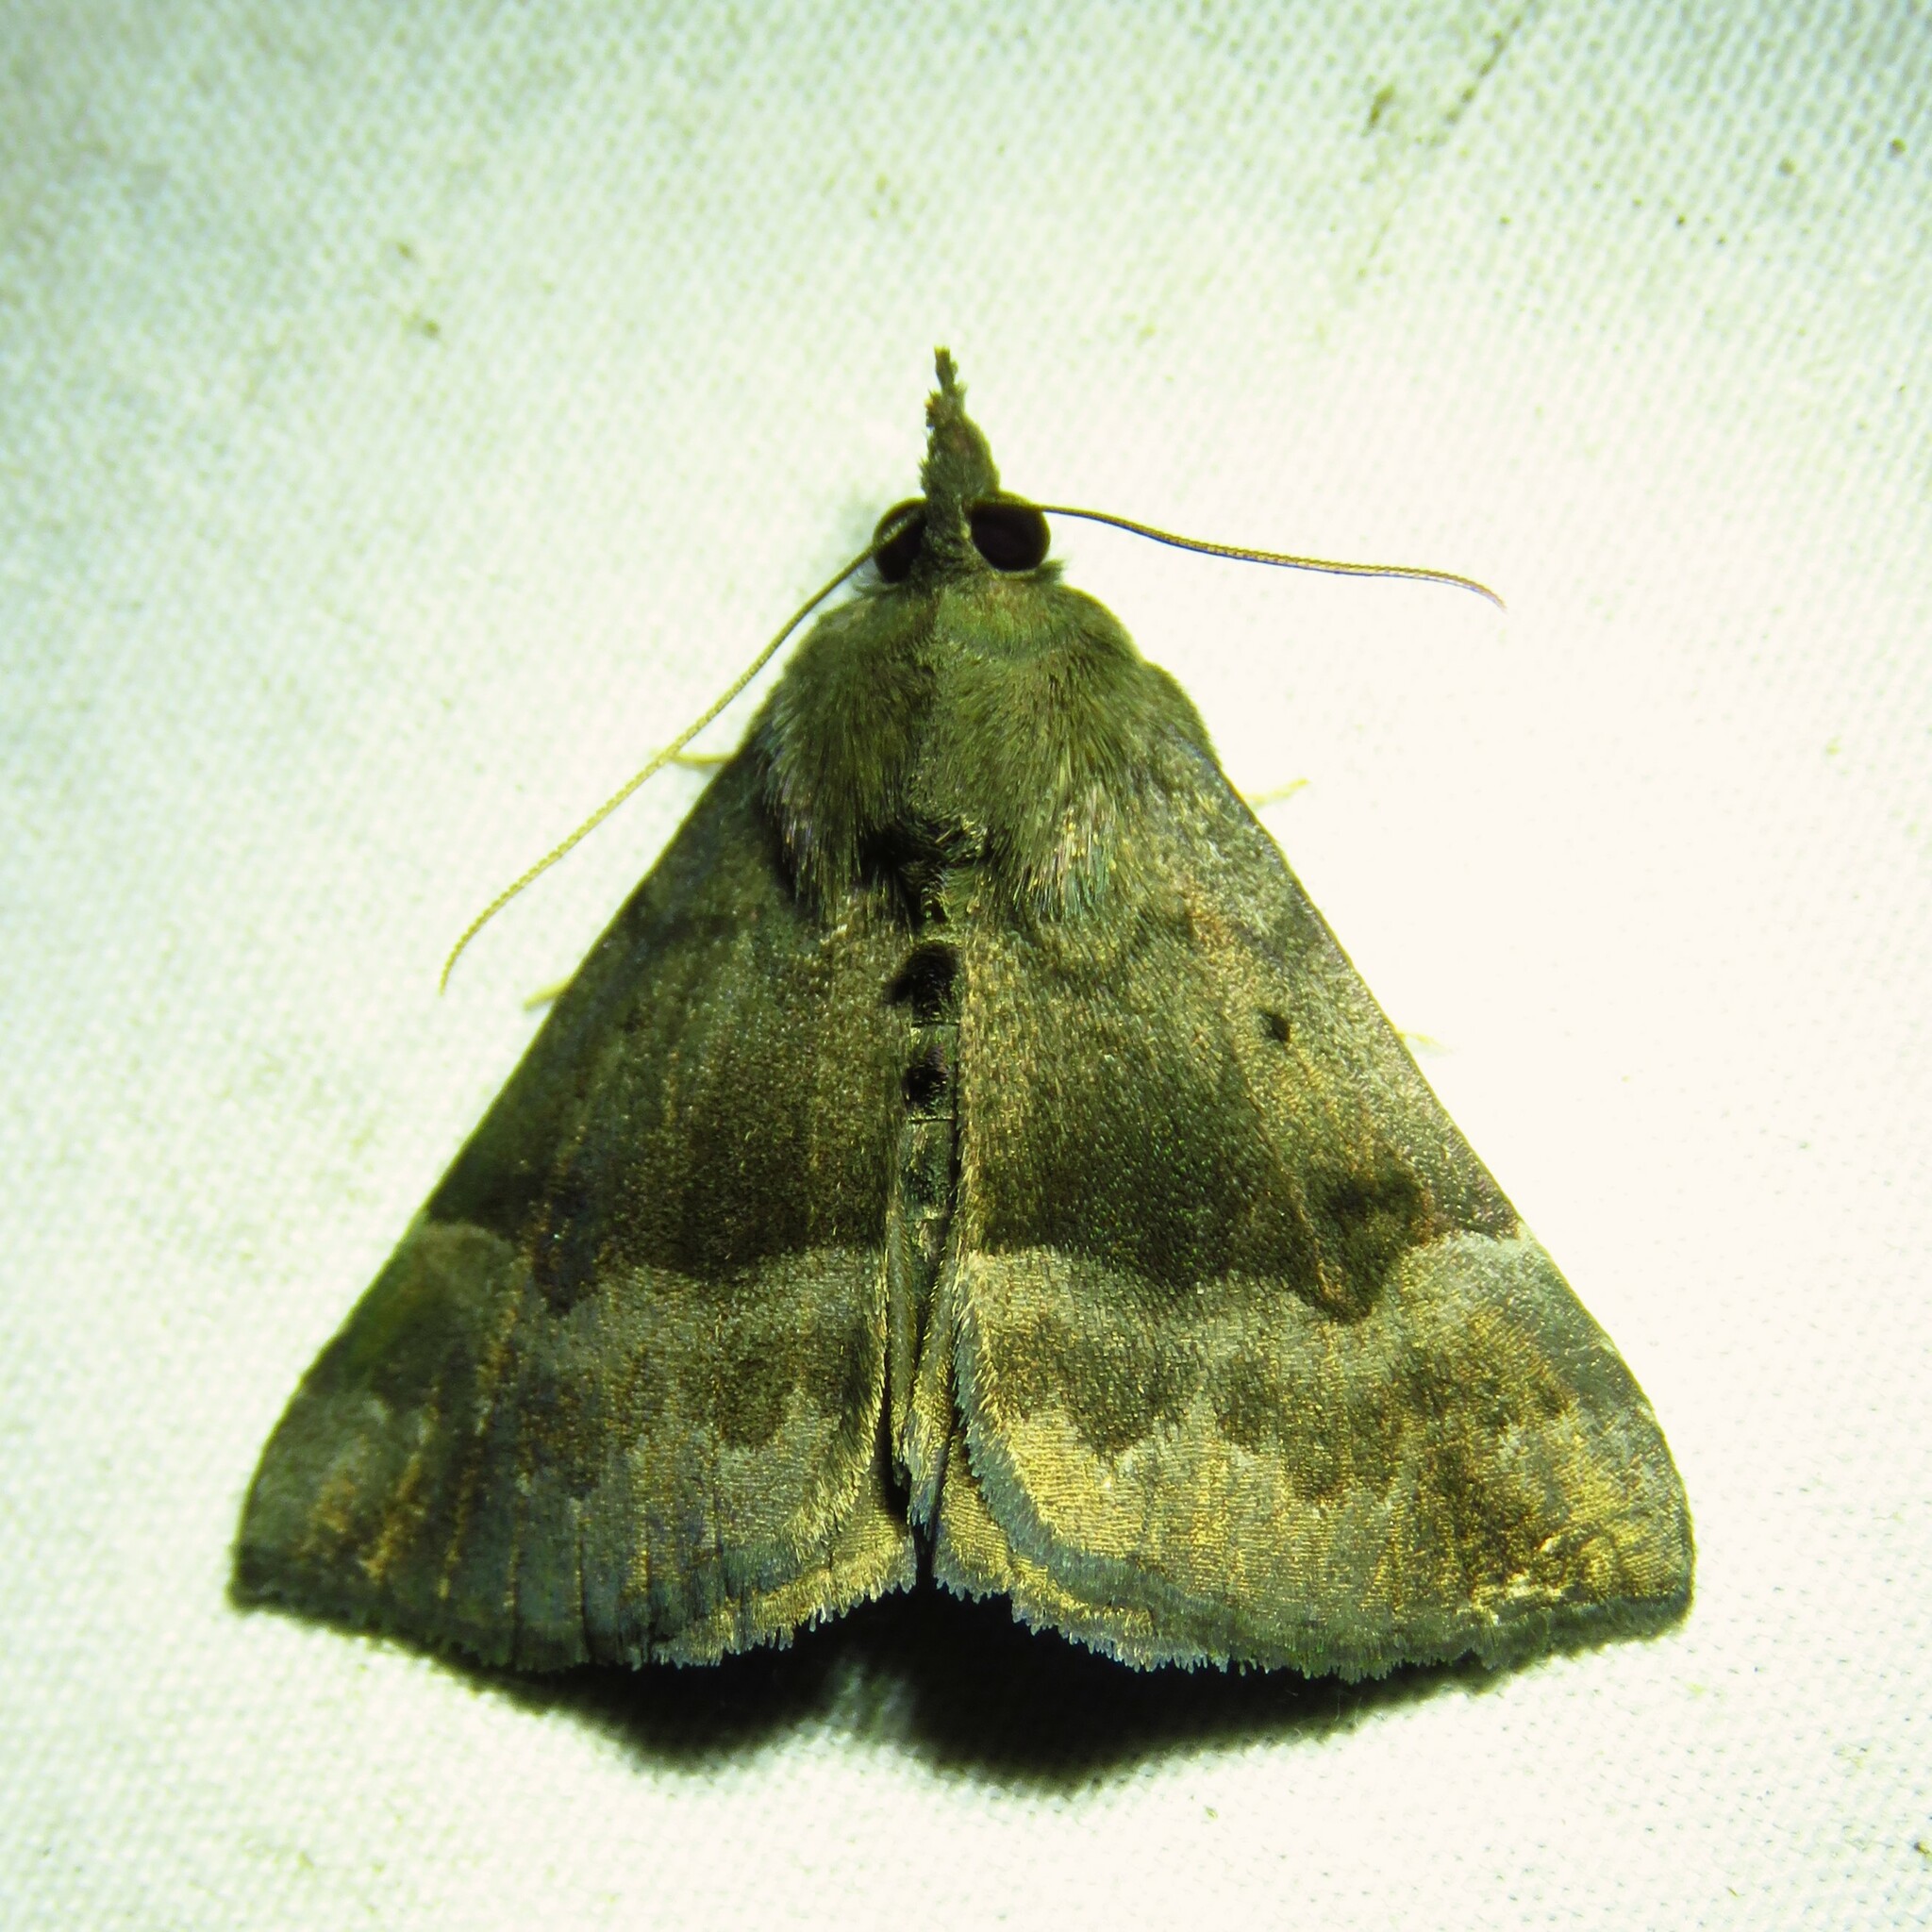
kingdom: Animalia
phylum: Arthropoda
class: Insecta
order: Lepidoptera
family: Erebidae
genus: Hypena
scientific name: Hypena madefactalis
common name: Gray-edged snout
